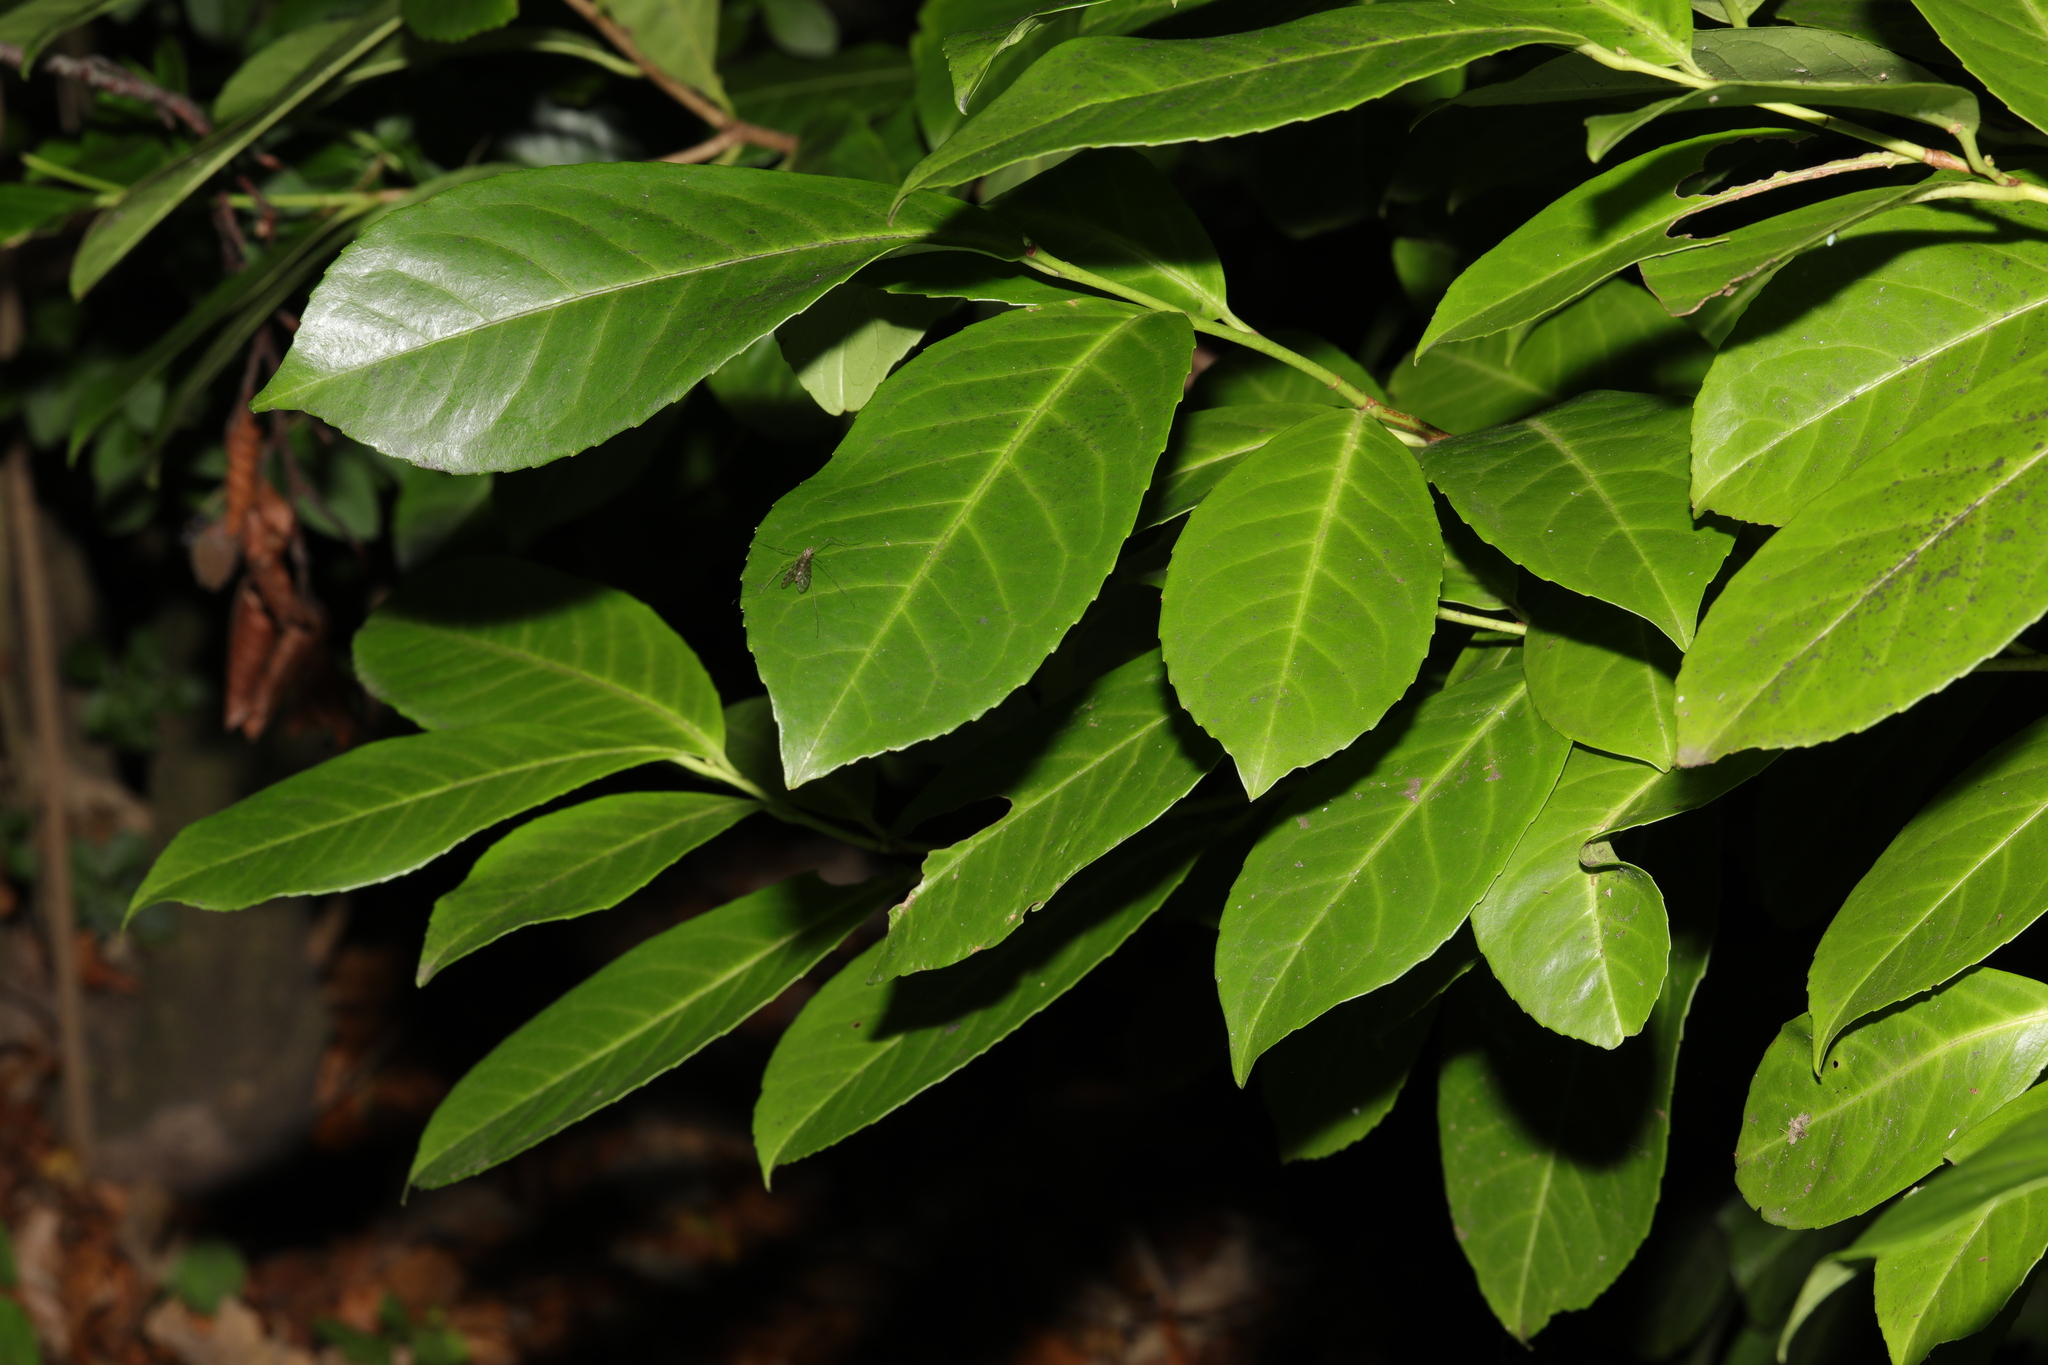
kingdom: Plantae
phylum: Tracheophyta
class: Magnoliopsida
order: Rosales
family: Rosaceae
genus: Prunus
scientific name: Prunus laurocerasus
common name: Cherry laurel
